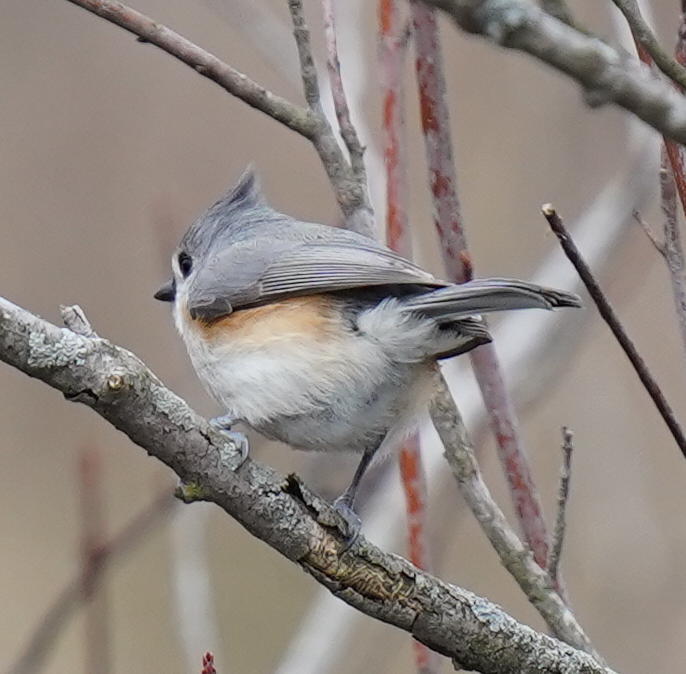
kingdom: Animalia
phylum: Chordata
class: Aves
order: Passeriformes
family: Paridae
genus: Baeolophus
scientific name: Baeolophus bicolor
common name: Tufted titmouse
